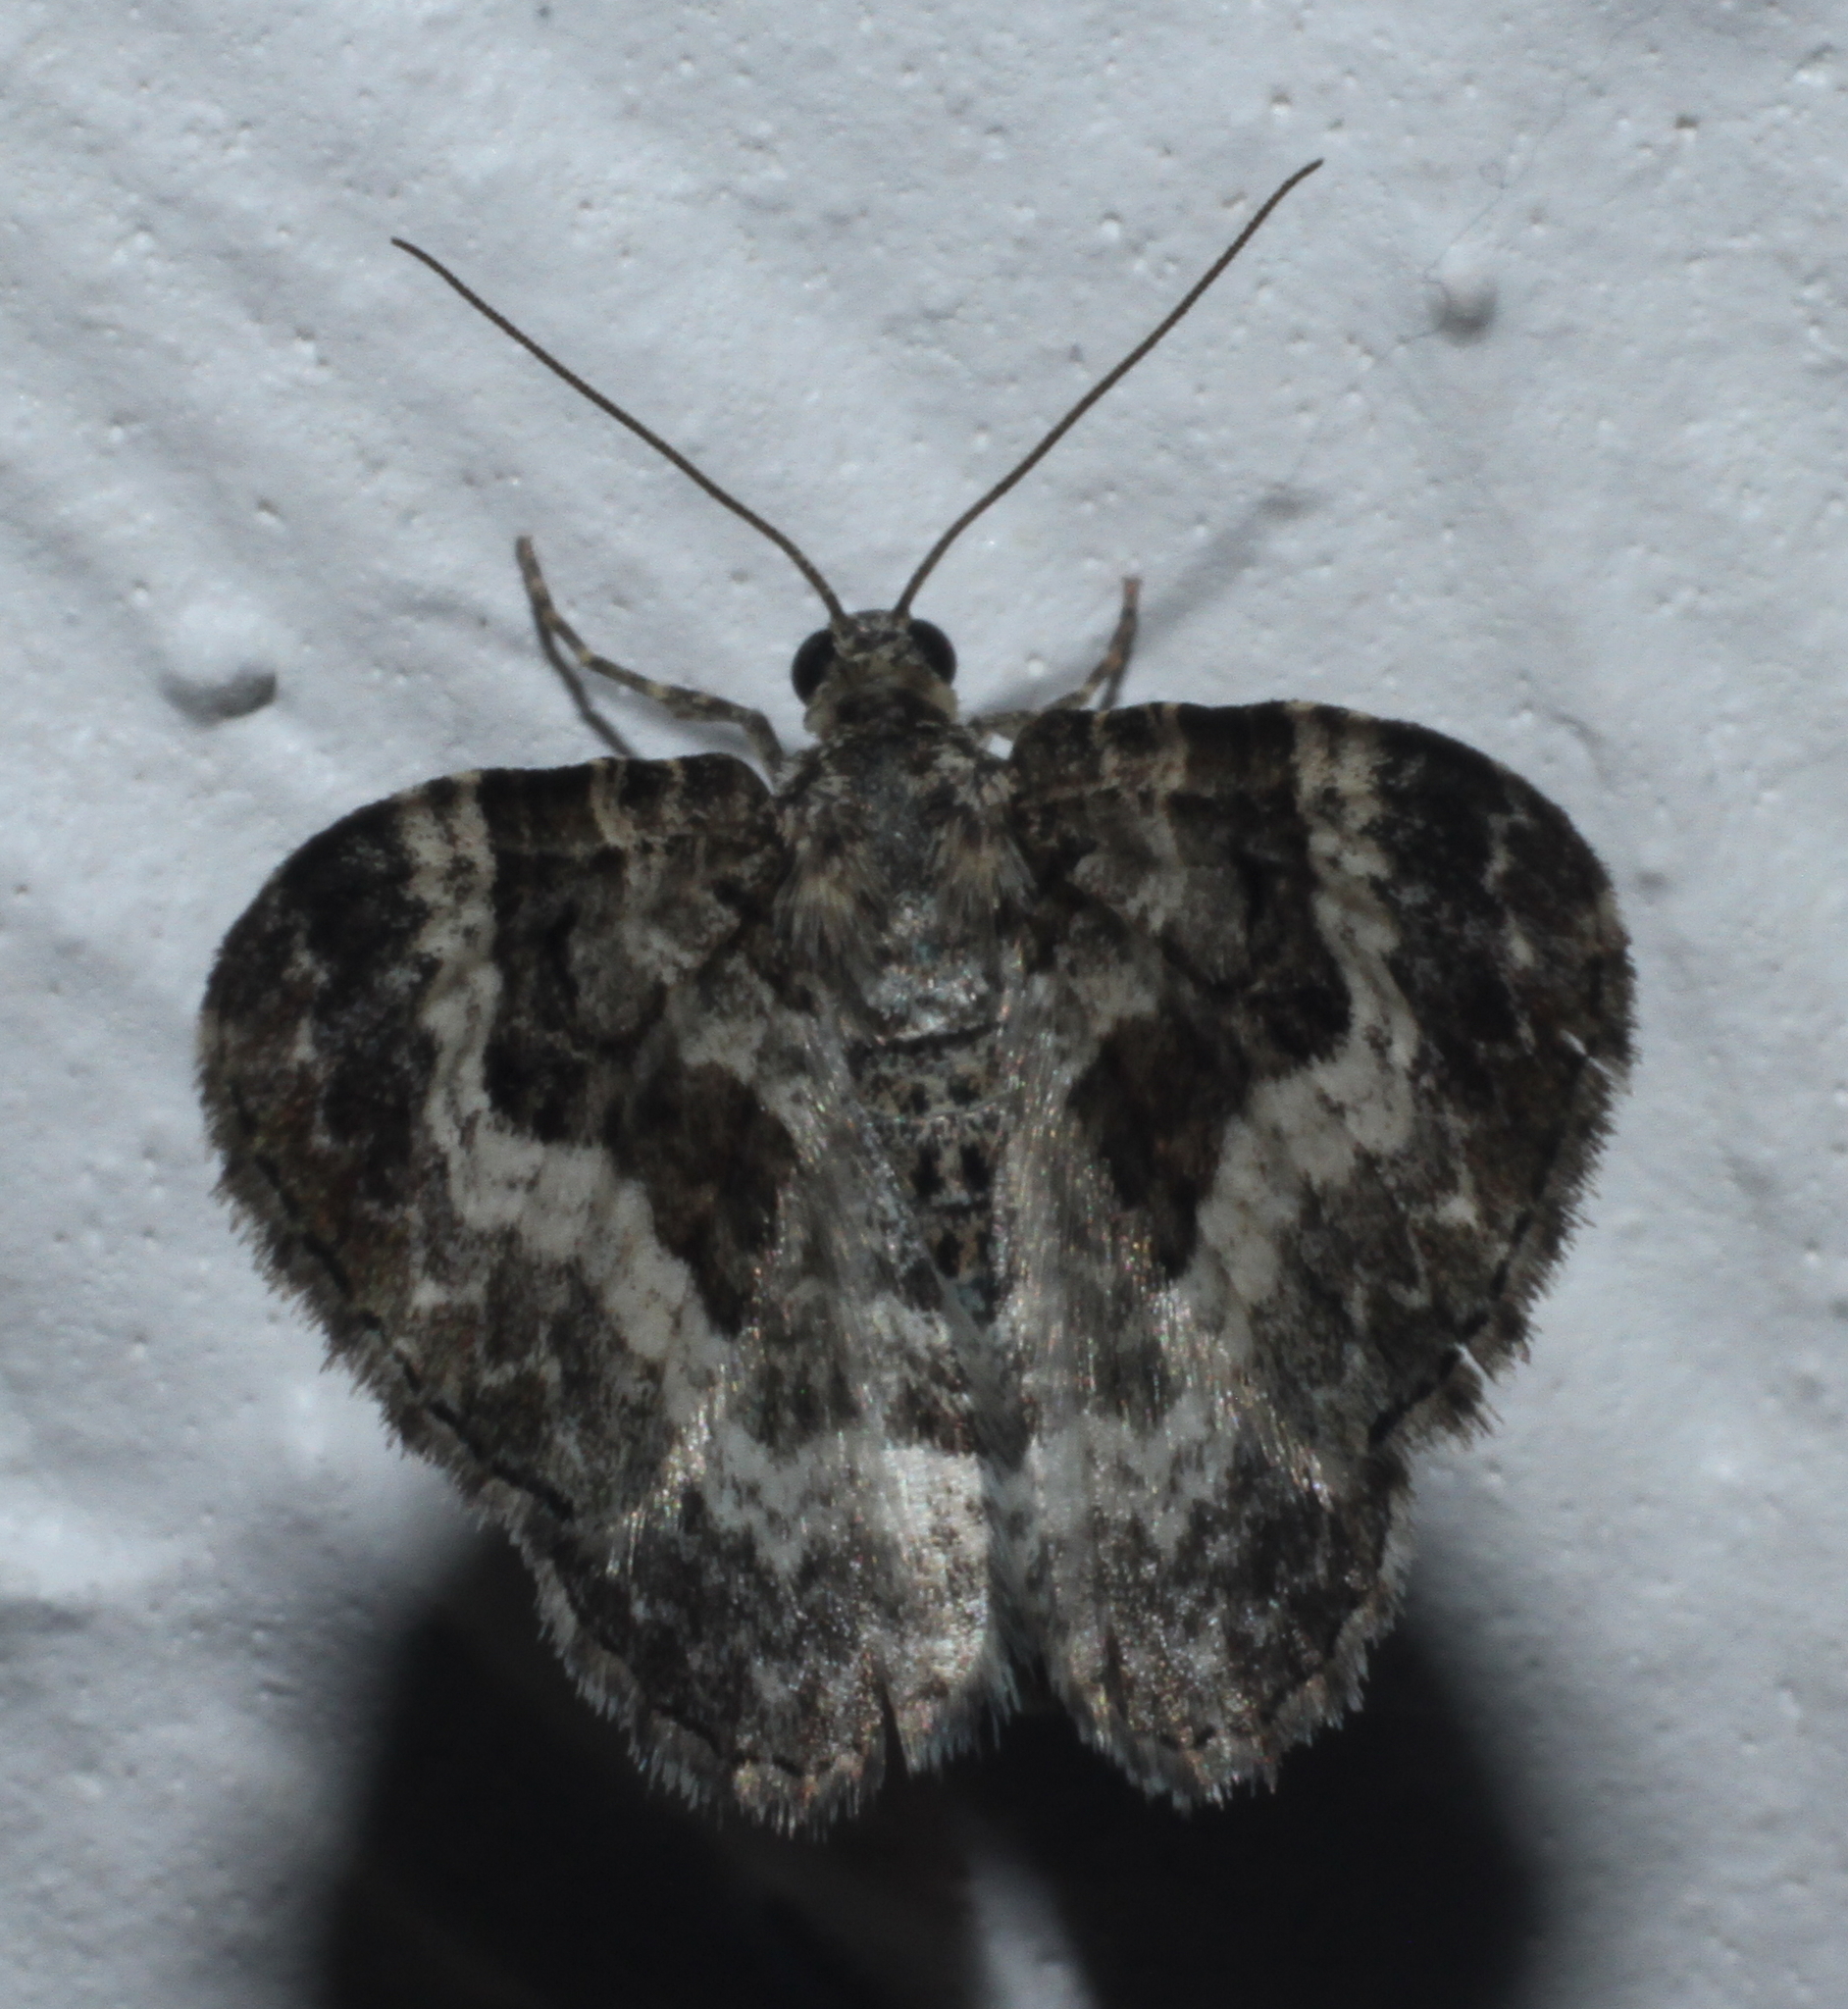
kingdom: Animalia
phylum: Arthropoda
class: Insecta
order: Lepidoptera
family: Geometridae
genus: Epirrhoe
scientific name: Epirrhoe alternata
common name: Common carpet
